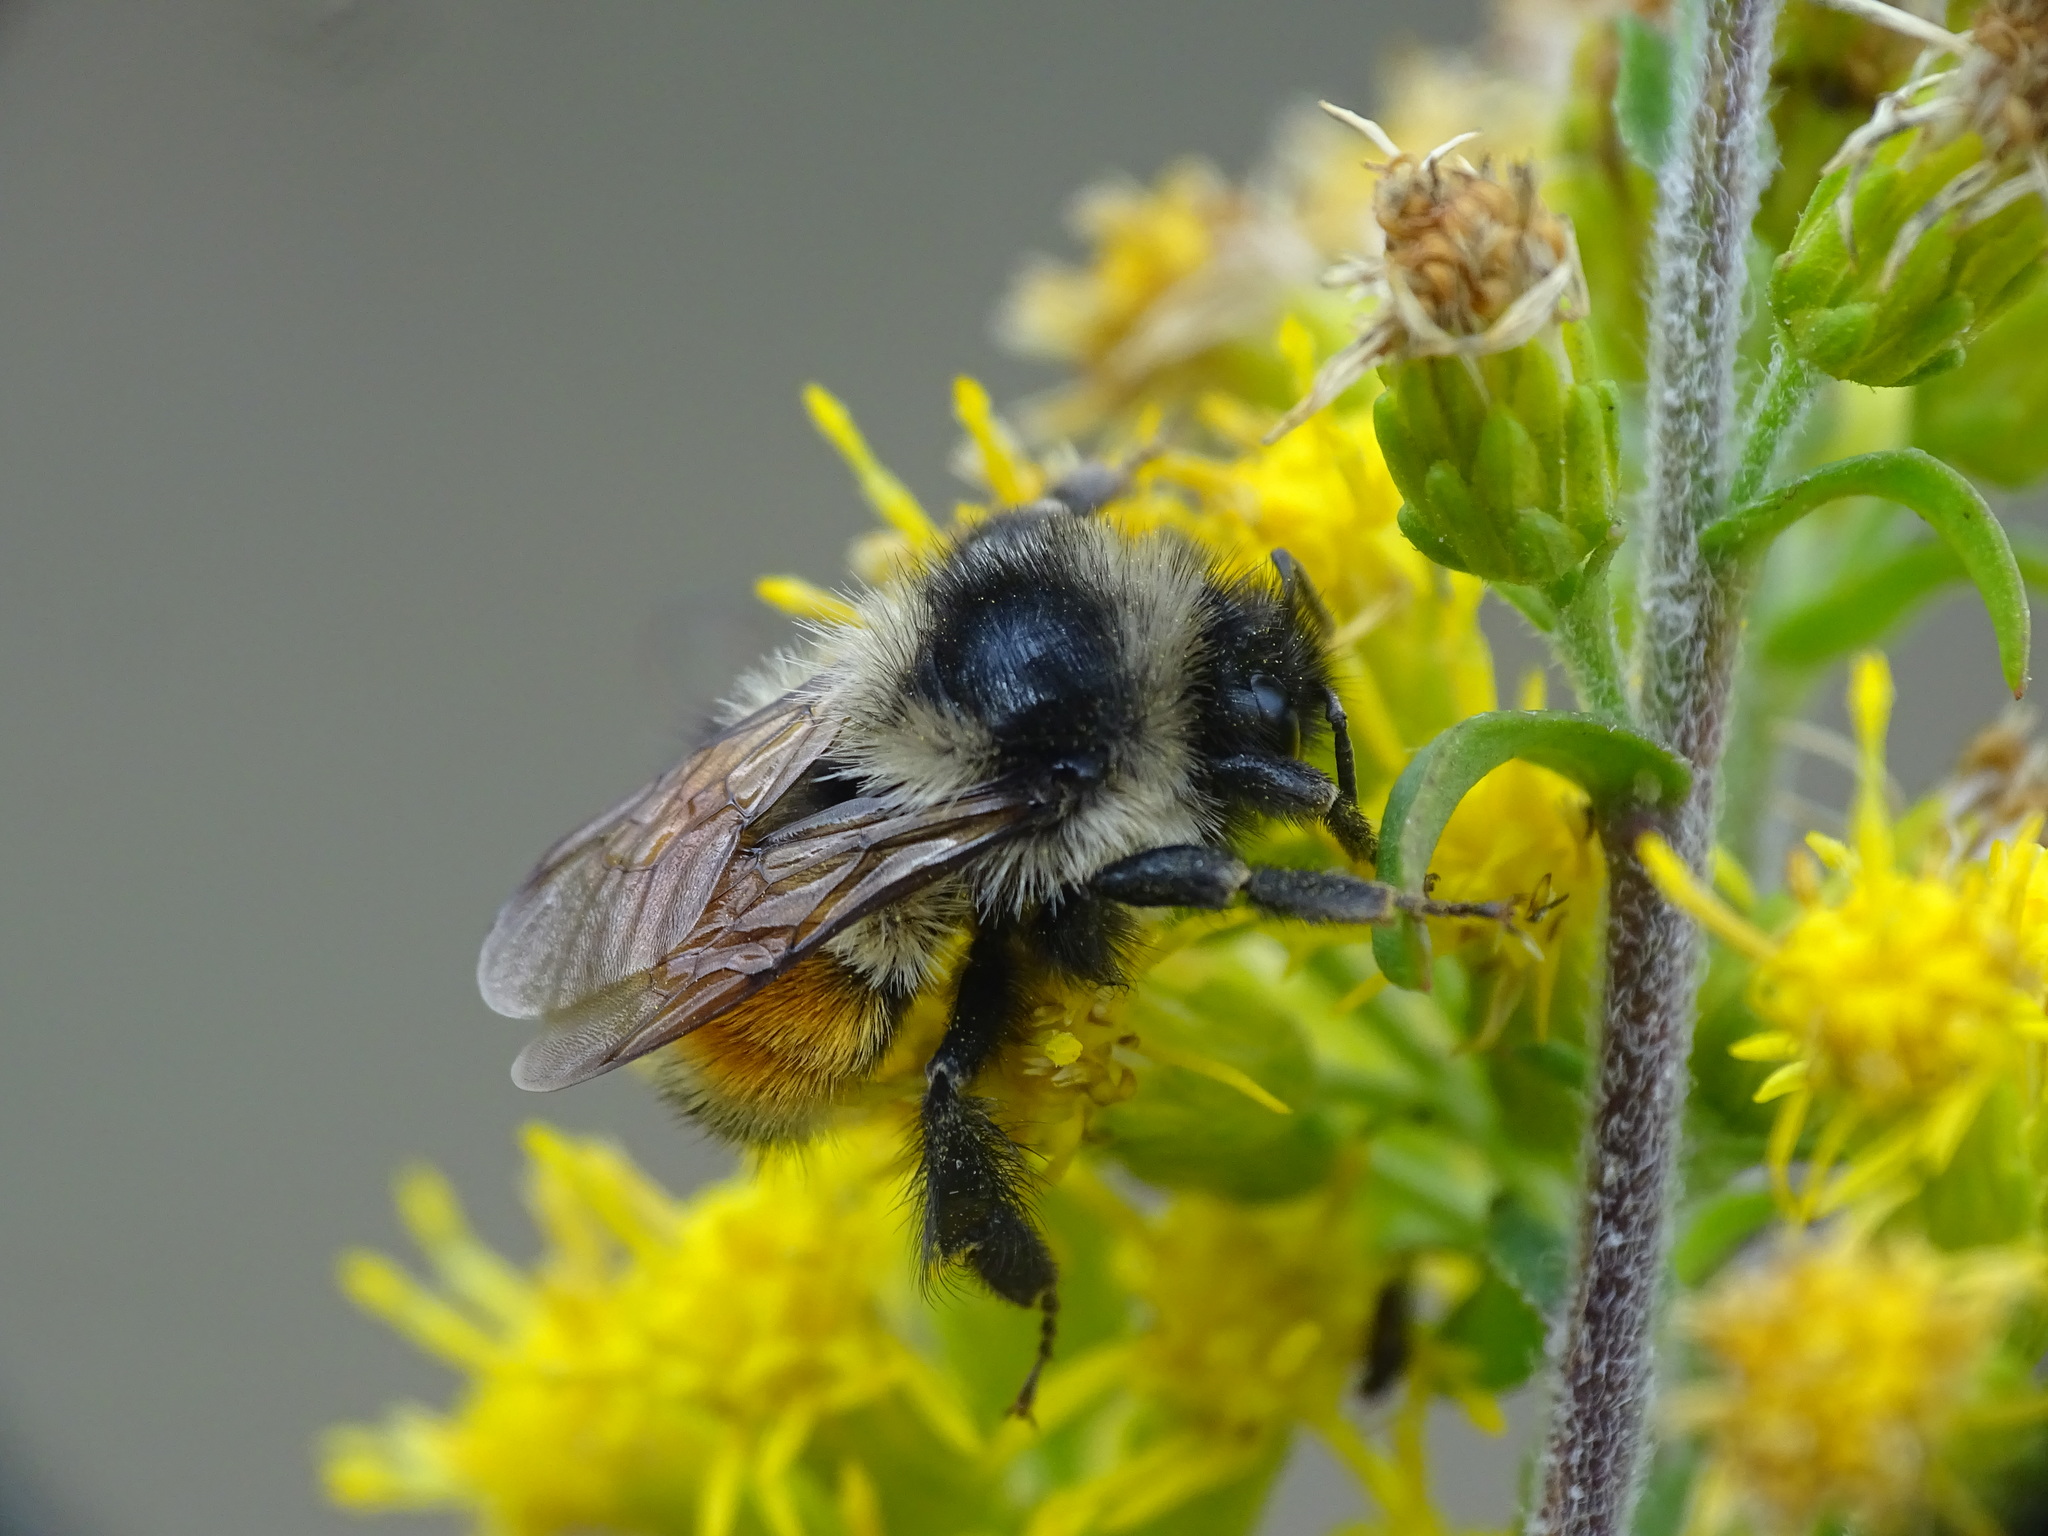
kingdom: Animalia
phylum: Arthropoda
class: Insecta
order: Hymenoptera
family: Apidae
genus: Bombus
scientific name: Bombus ternarius
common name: Tri-colored bumble bee
